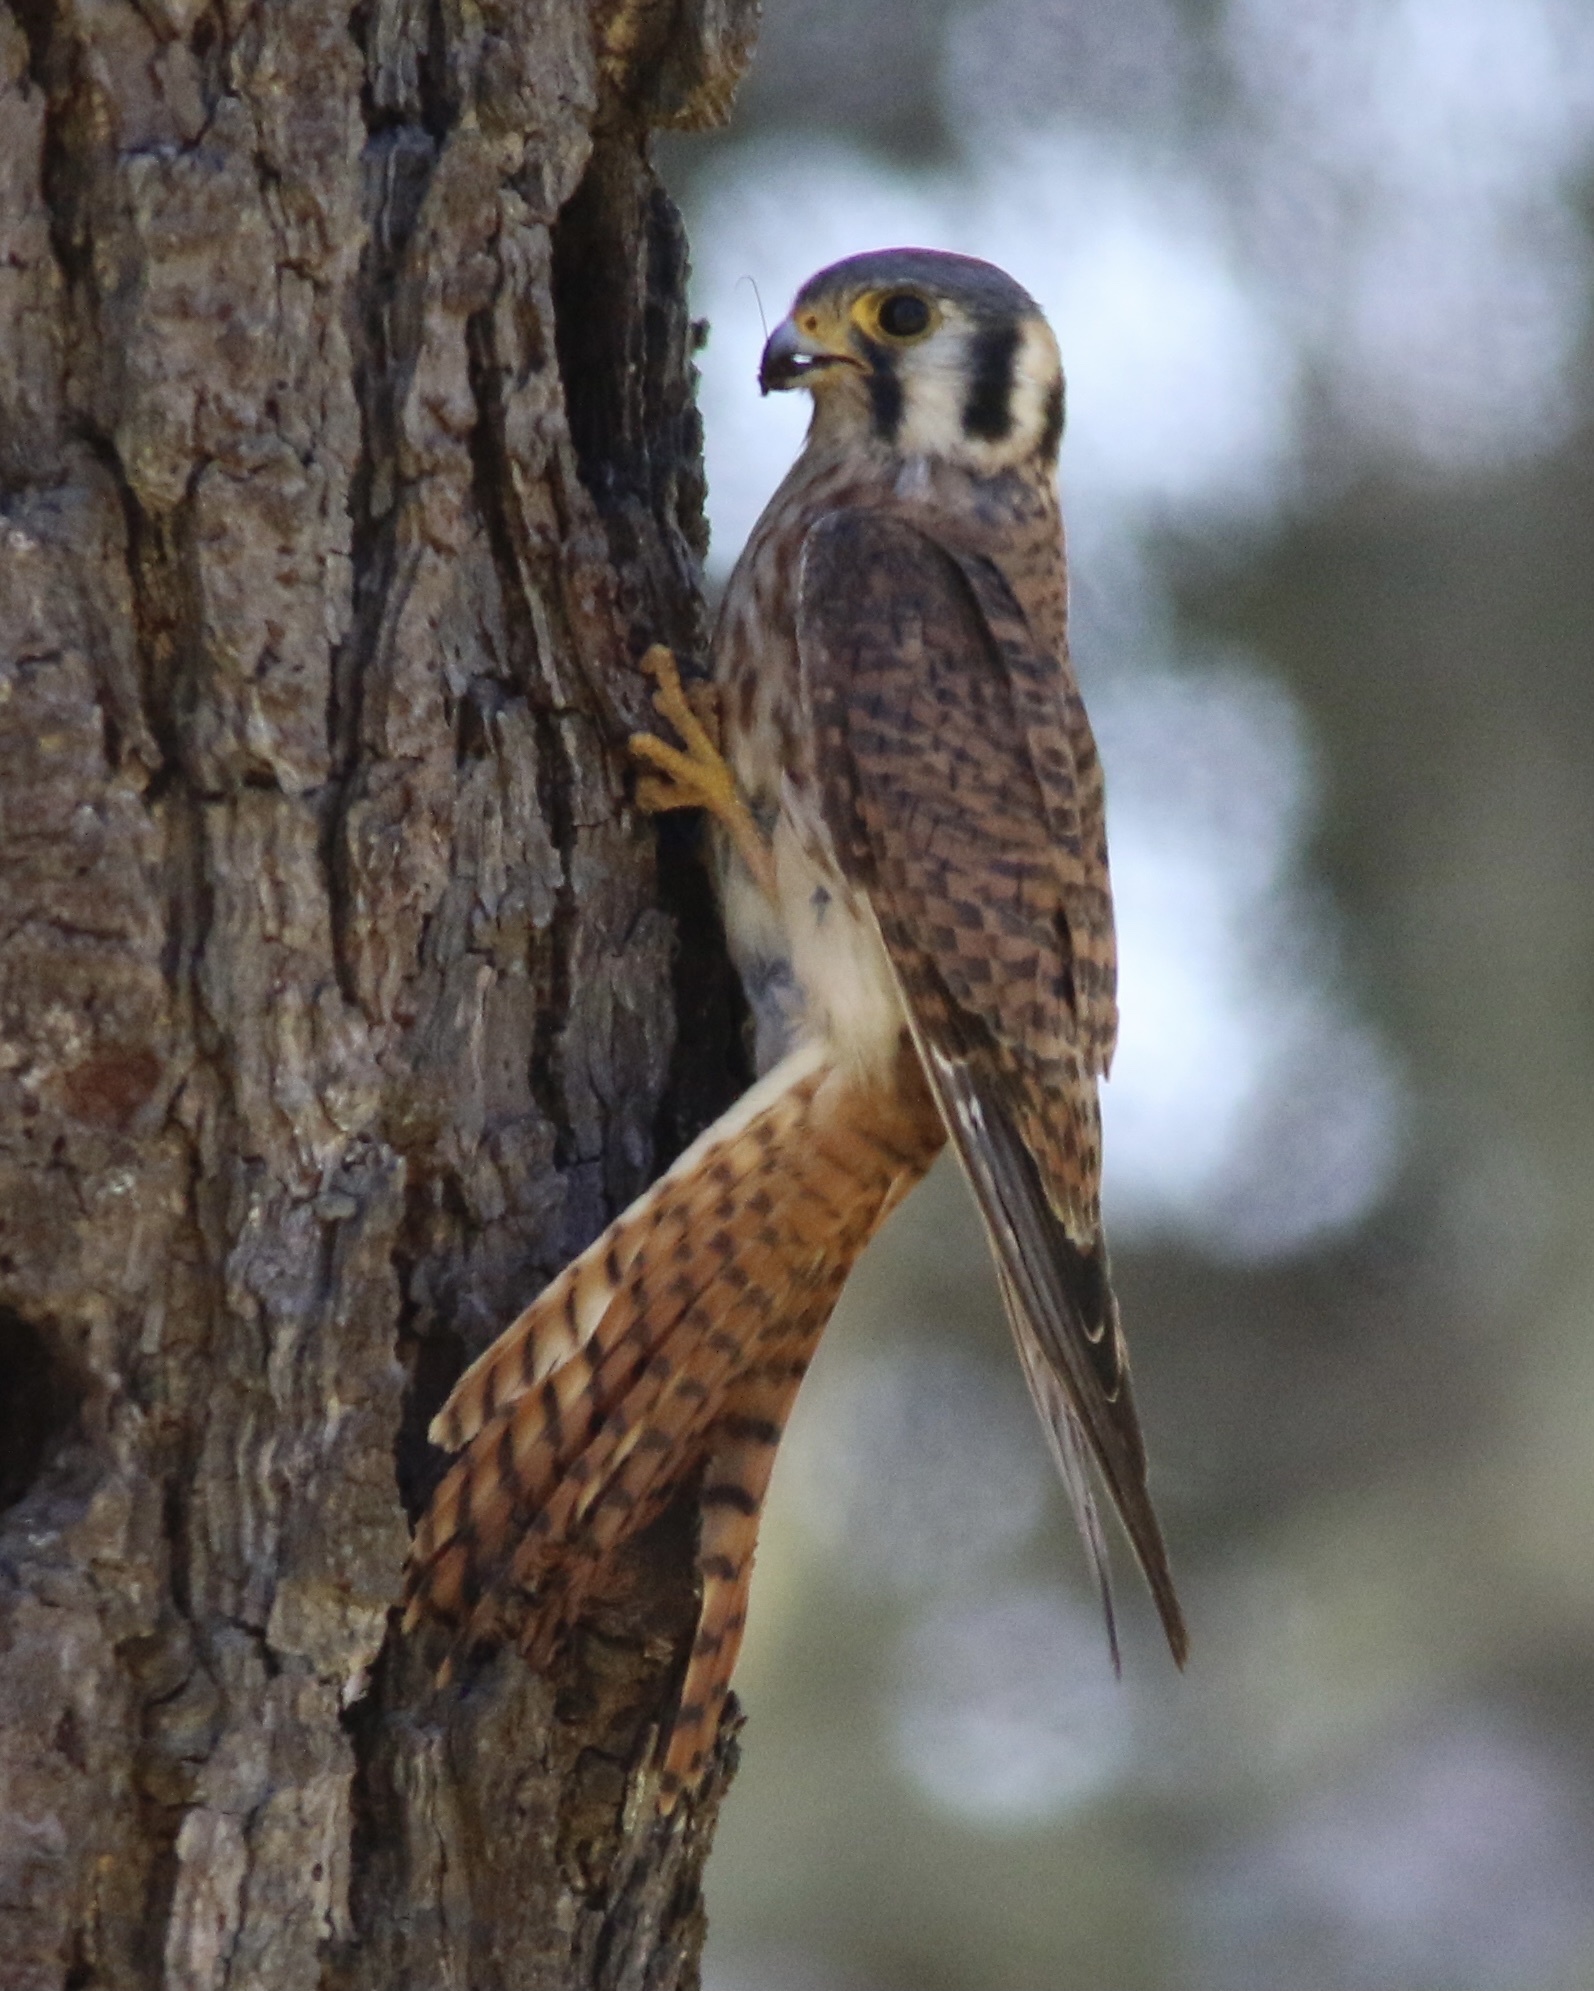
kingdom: Animalia
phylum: Chordata
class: Aves
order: Falconiformes
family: Falconidae
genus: Falco
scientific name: Falco sparverius
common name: American kestrel
